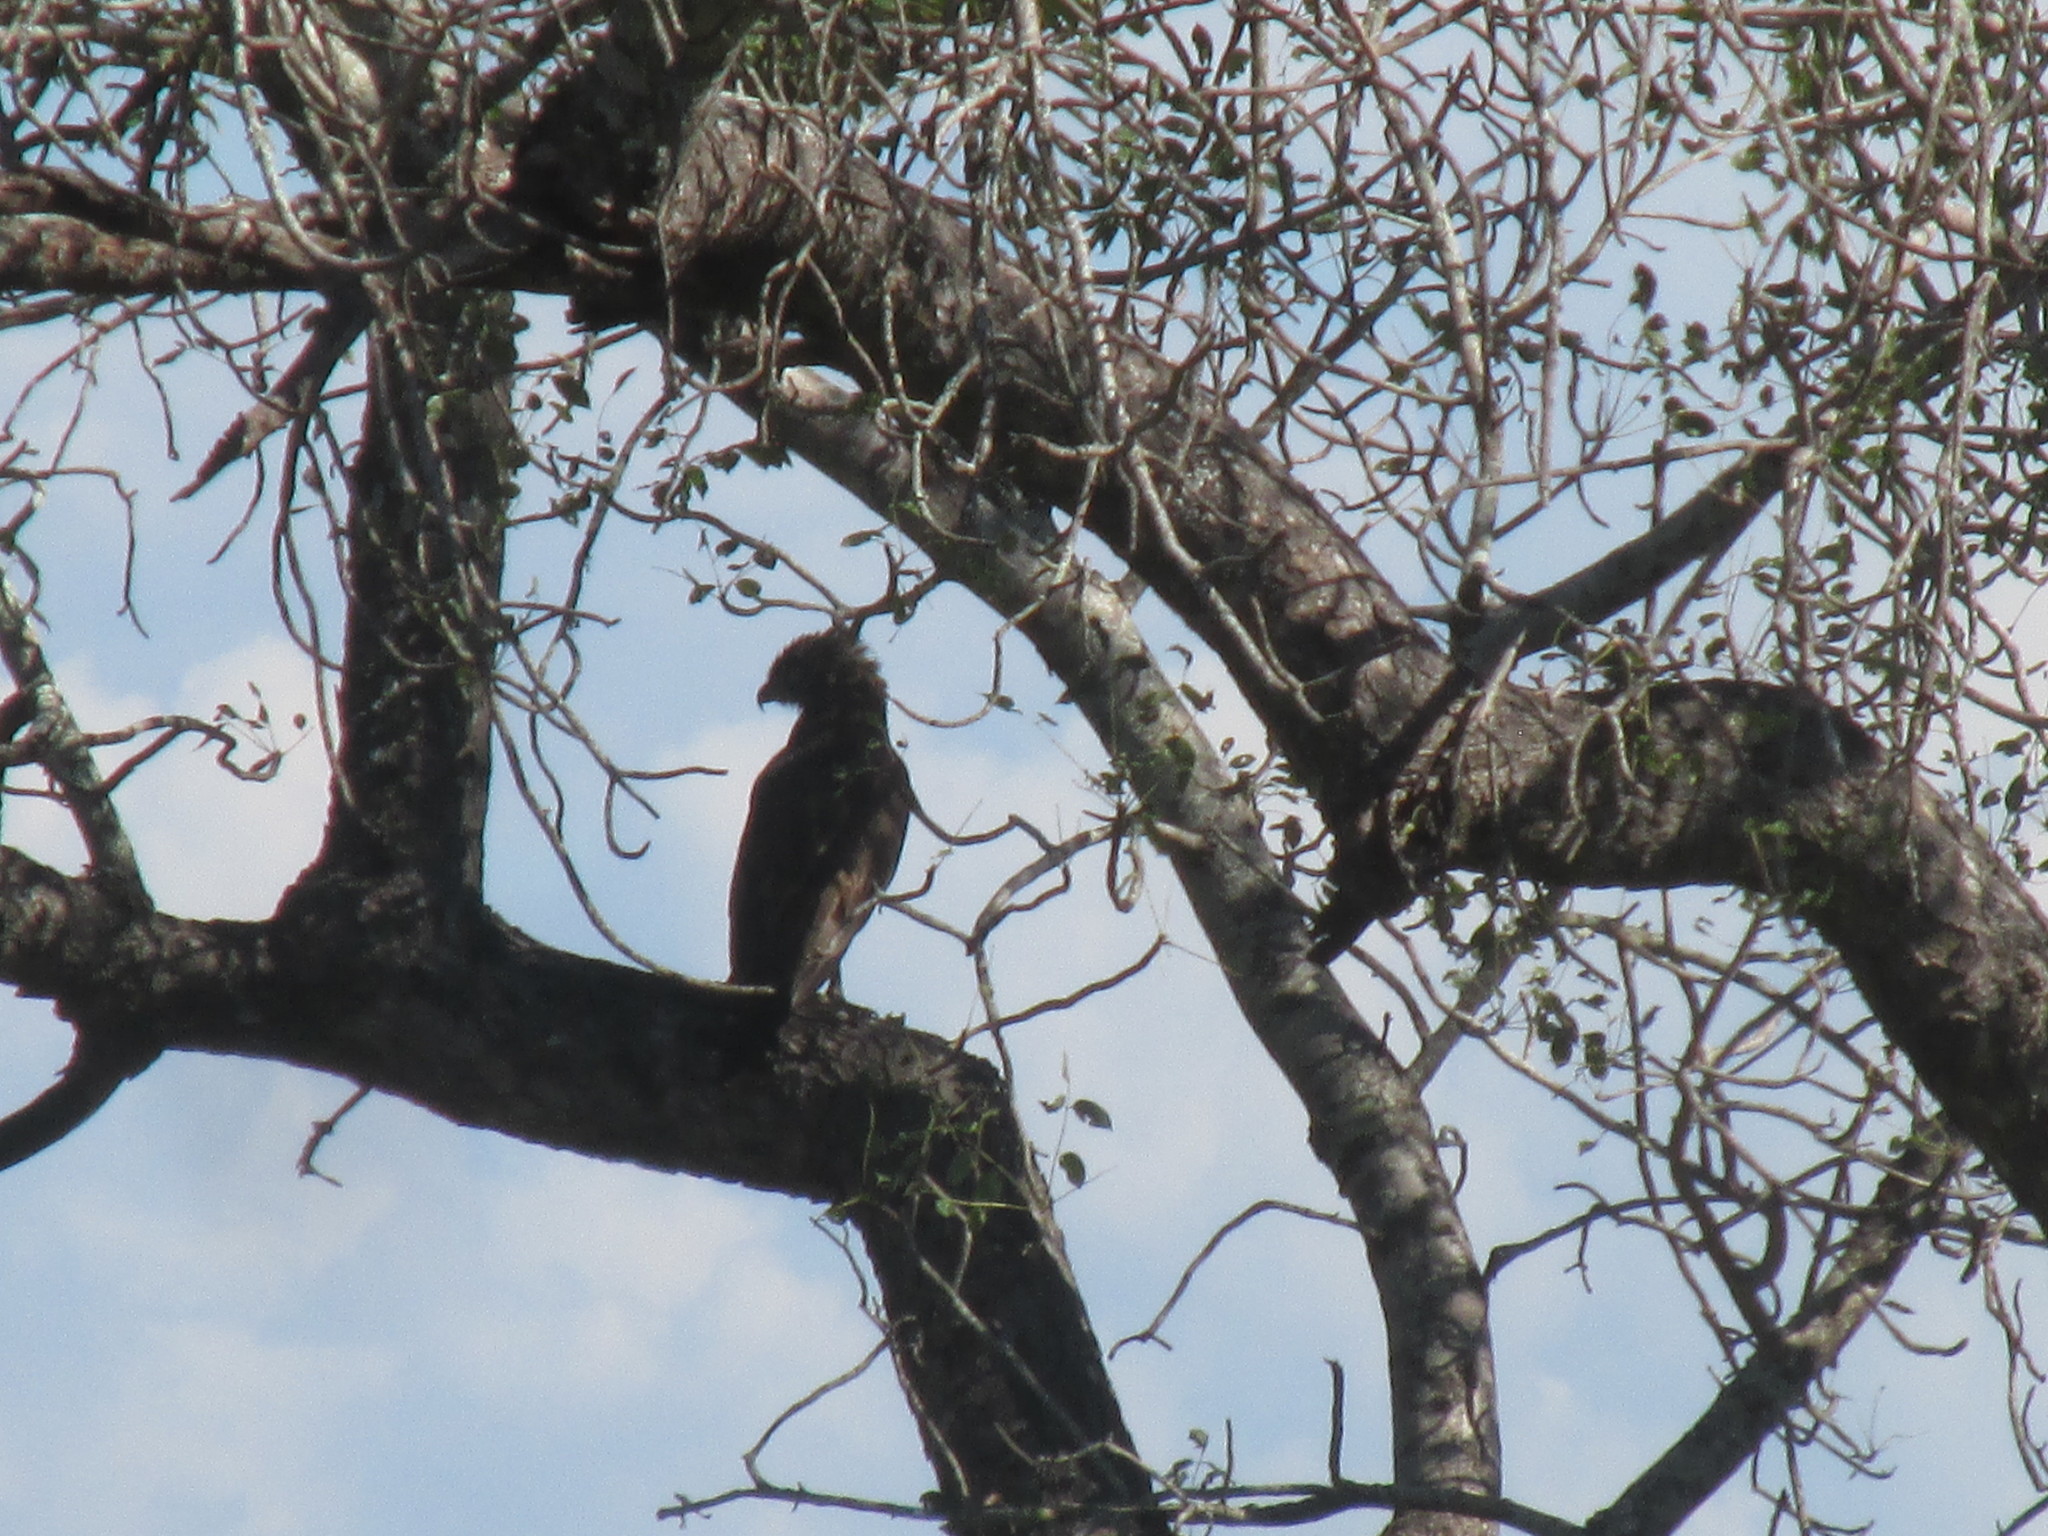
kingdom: Animalia
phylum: Chordata
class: Aves
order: Accipitriformes
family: Accipitridae
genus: Circaetus
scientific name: Circaetus cinereus
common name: Brown snake eagle
